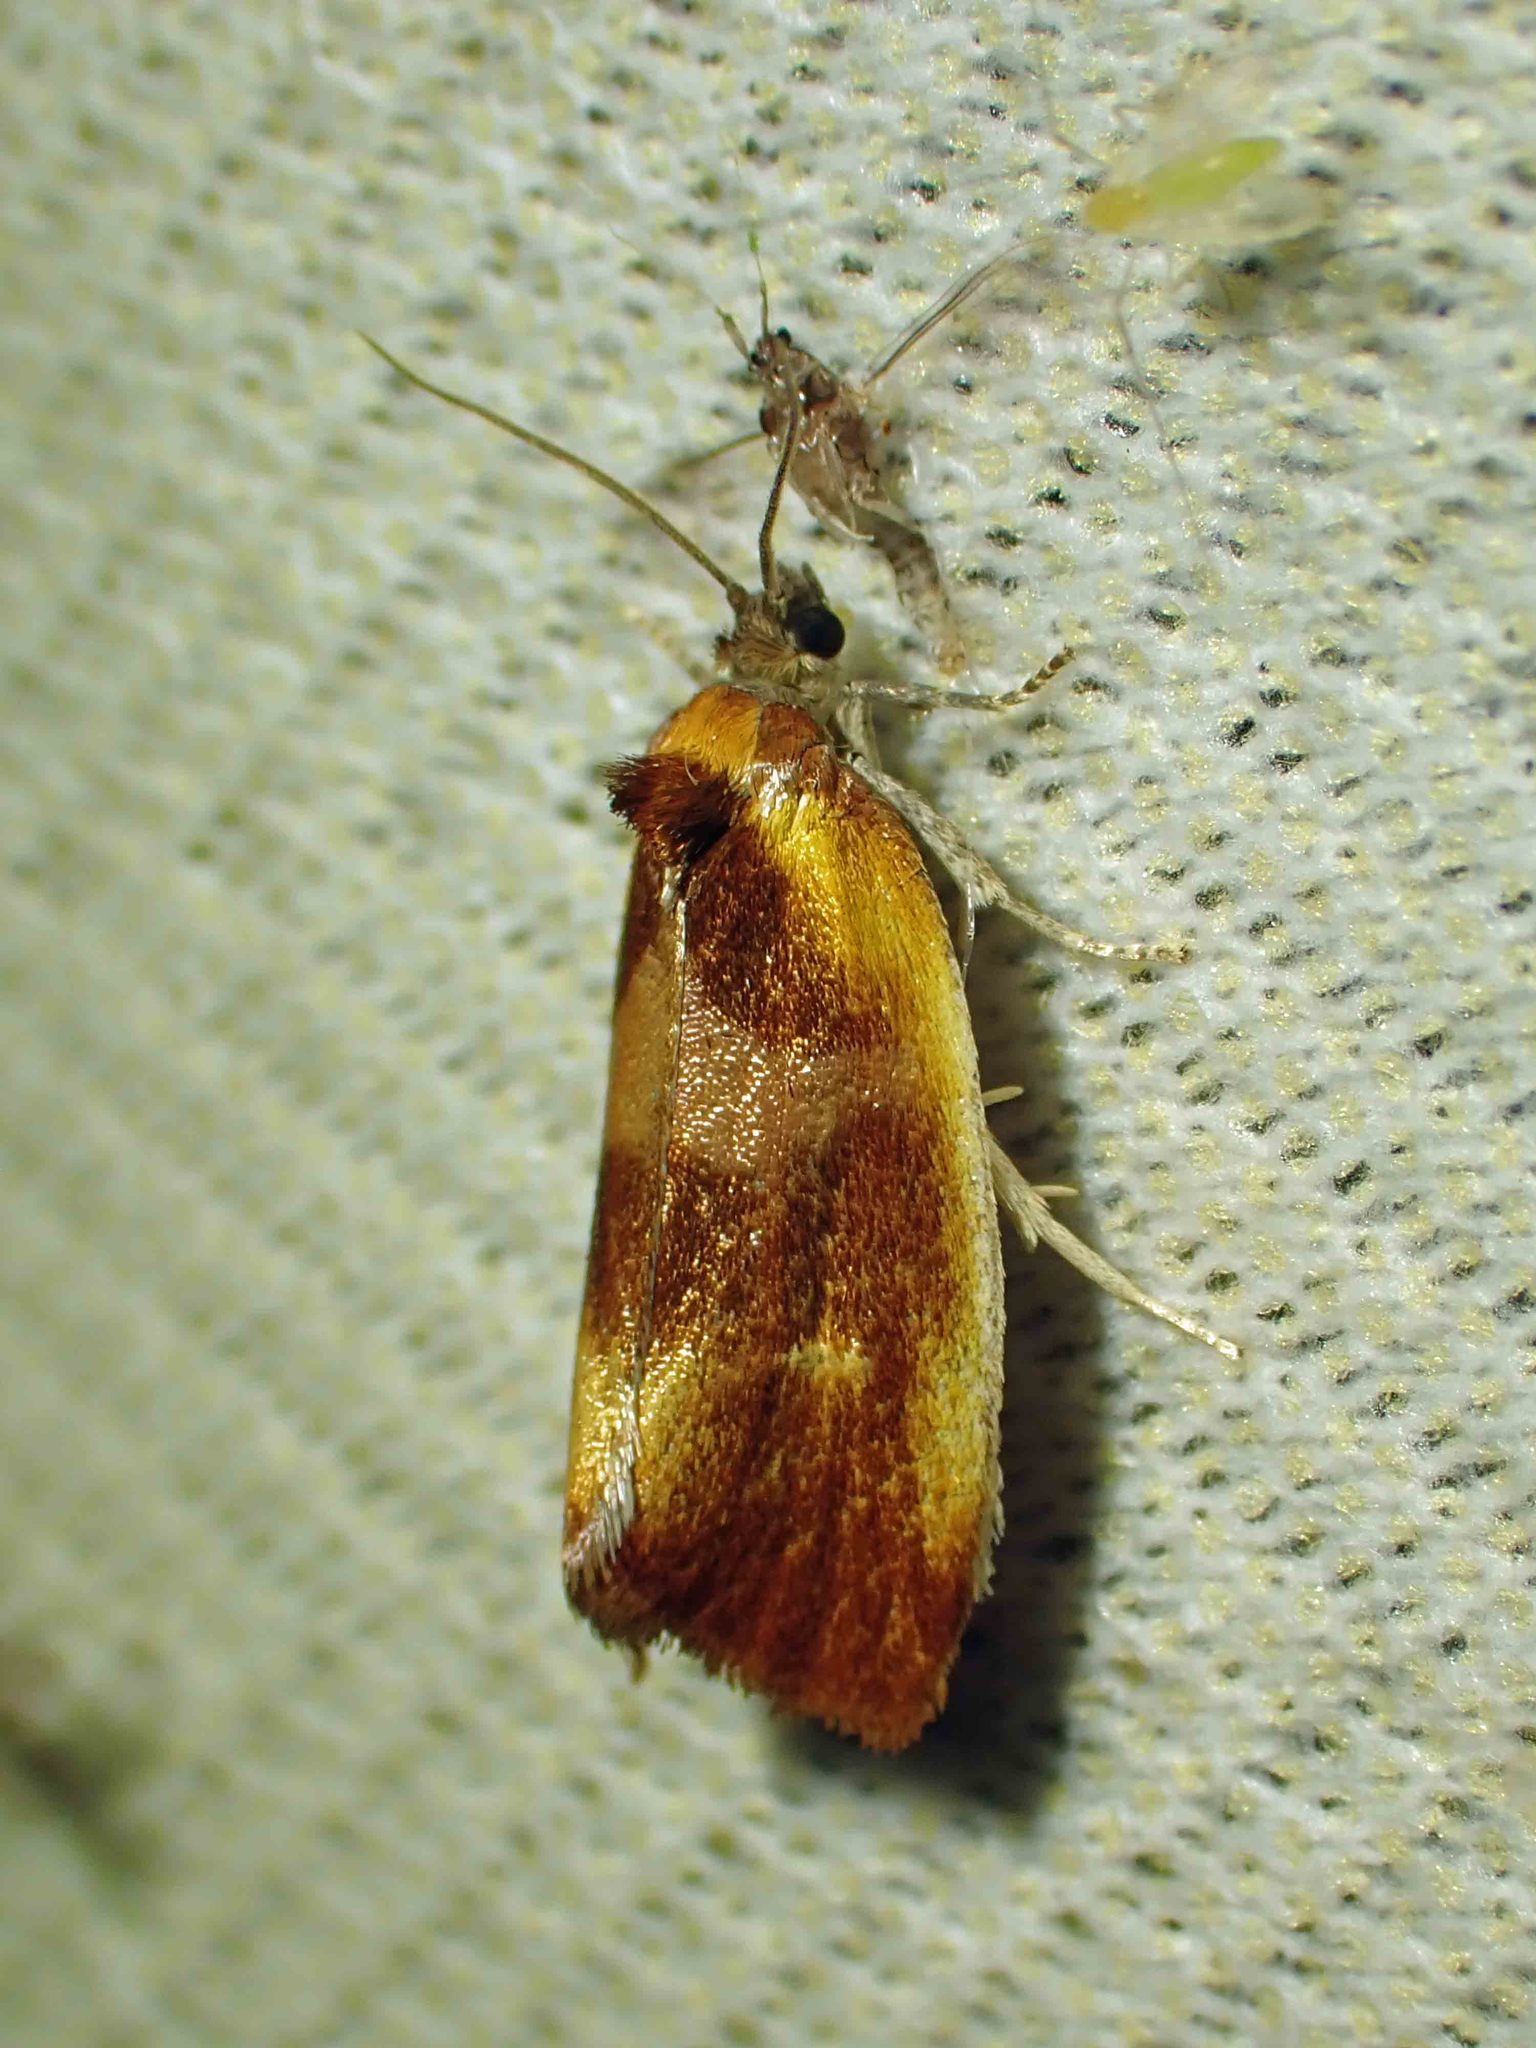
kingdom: Animalia
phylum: Arthropoda
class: Insecta
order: Lepidoptera
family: Tortricidae
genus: Eulia
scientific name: Eulia ministrana
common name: Brassy twist
